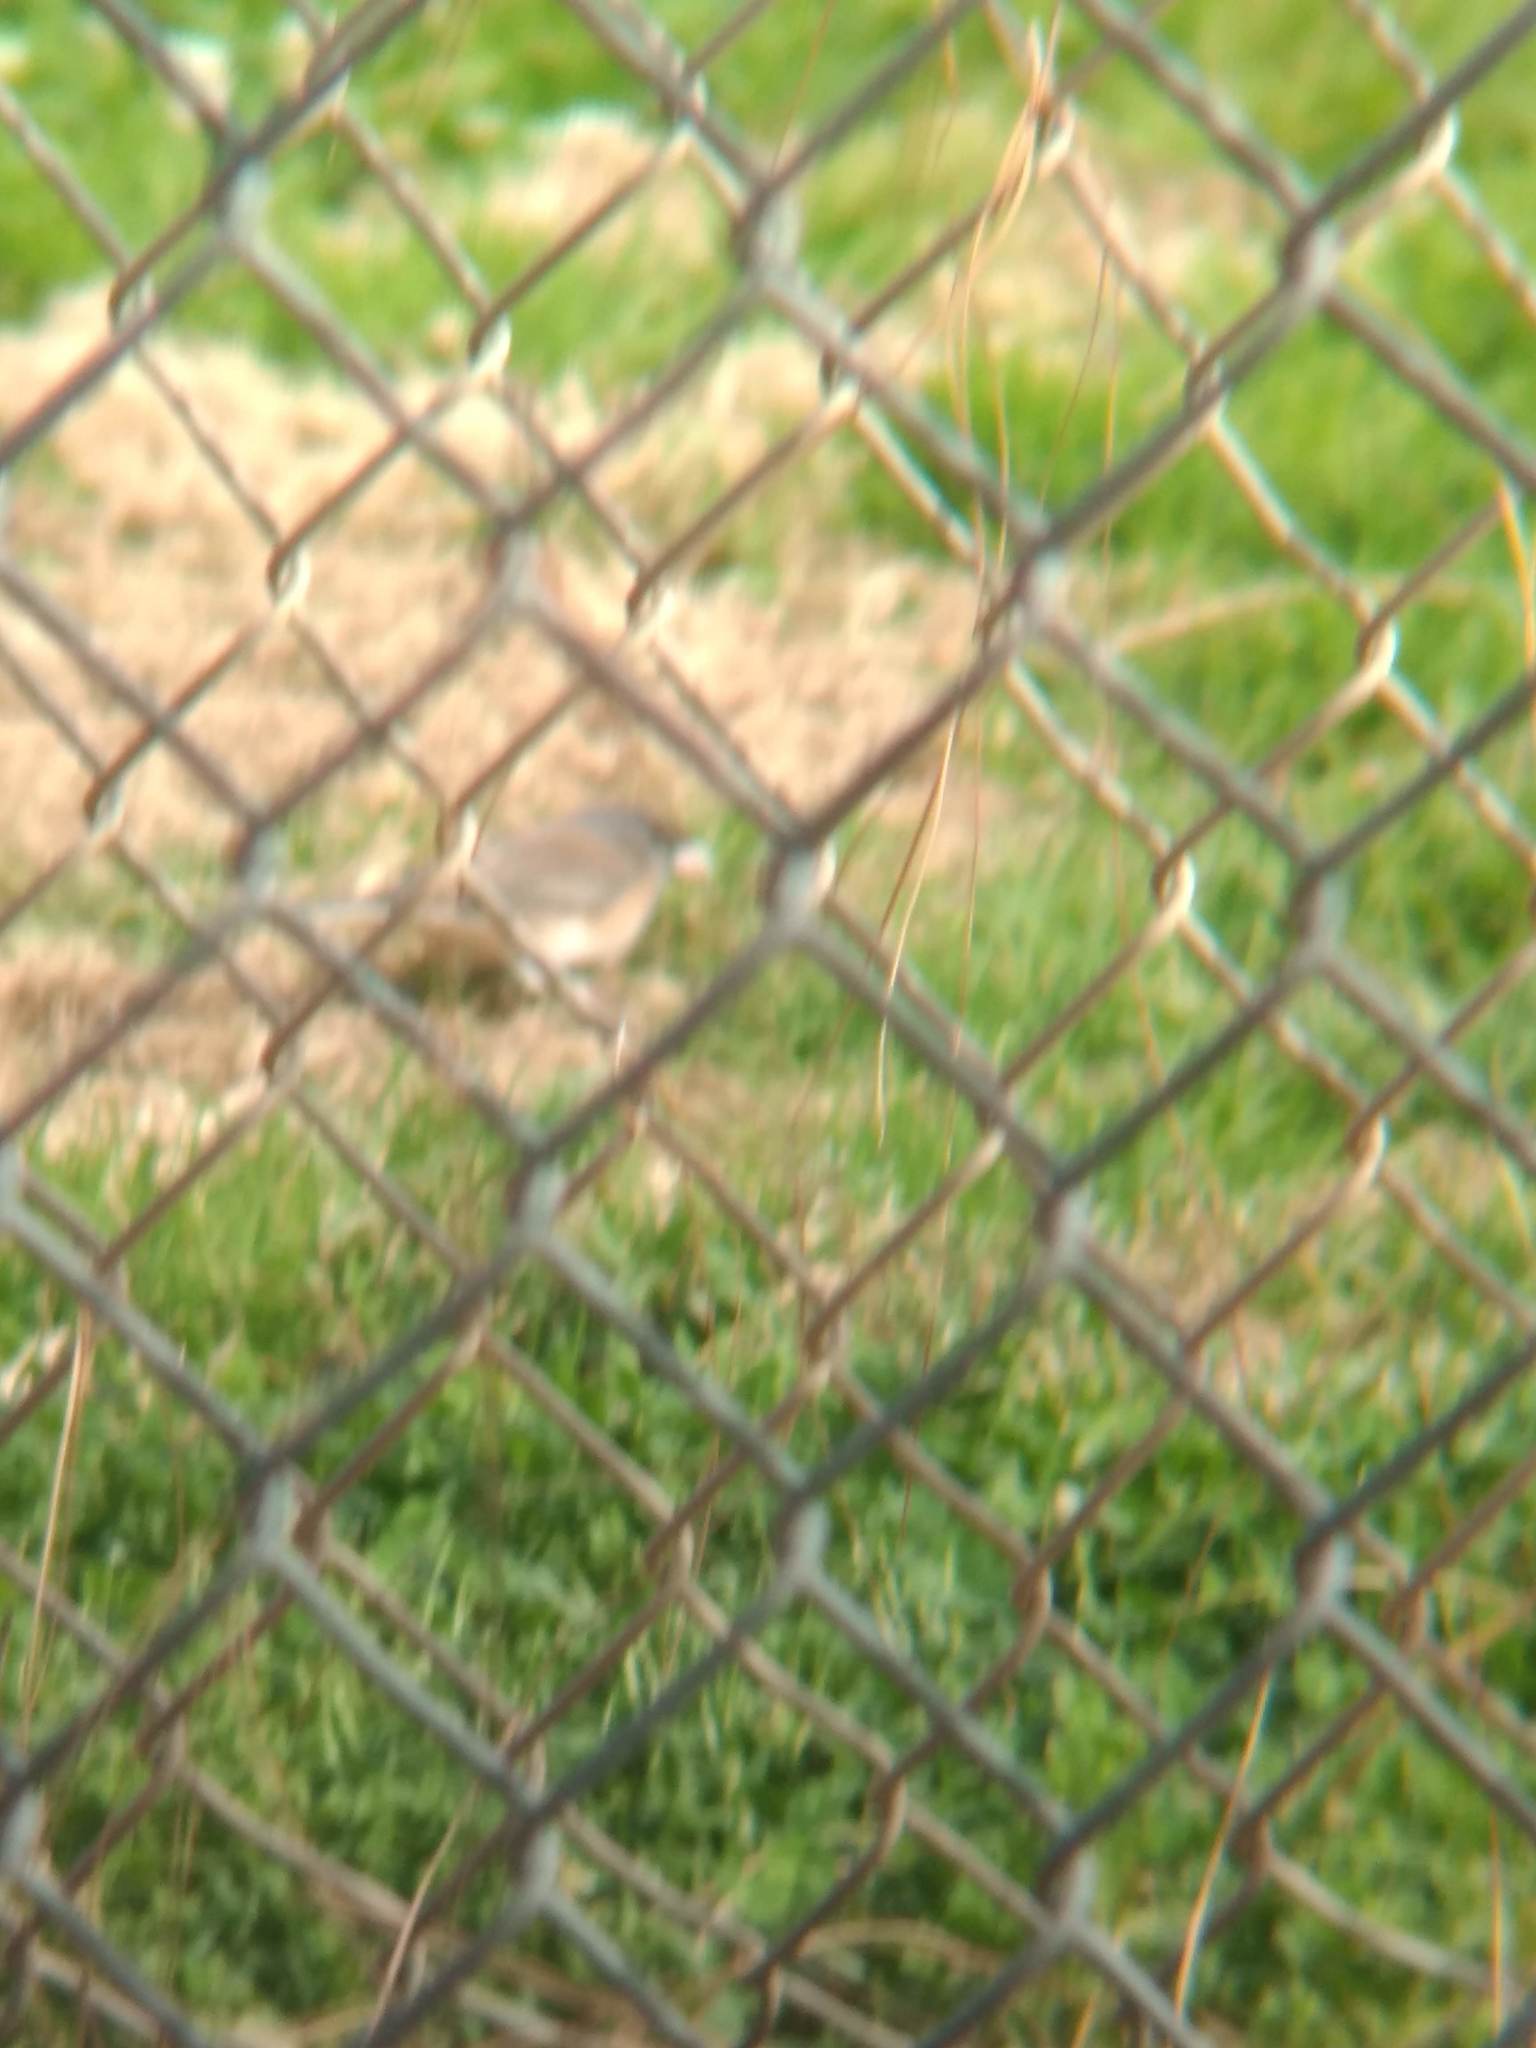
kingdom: Animalia
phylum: Chordata
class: Aves
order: Passeriformes
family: Passerellidae
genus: Junco
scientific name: Junco hyemalis
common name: Dark-eyed junco
